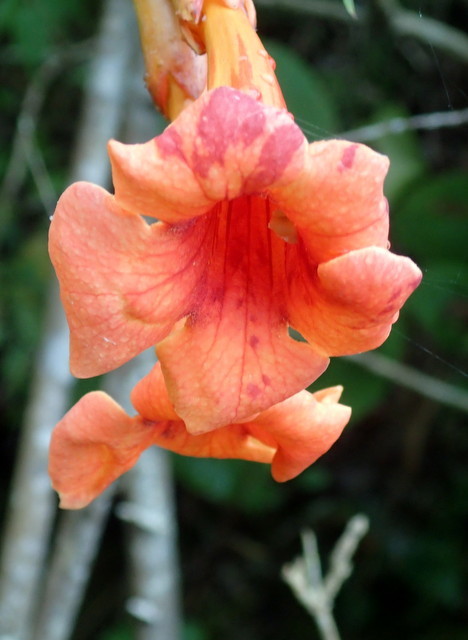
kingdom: Plantae
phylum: Tracheophyta
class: Magnoliopsida
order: Lamiales
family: Bignoniaceae
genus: Campsis
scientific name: Campsis radicans
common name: Trumpet-creeper
